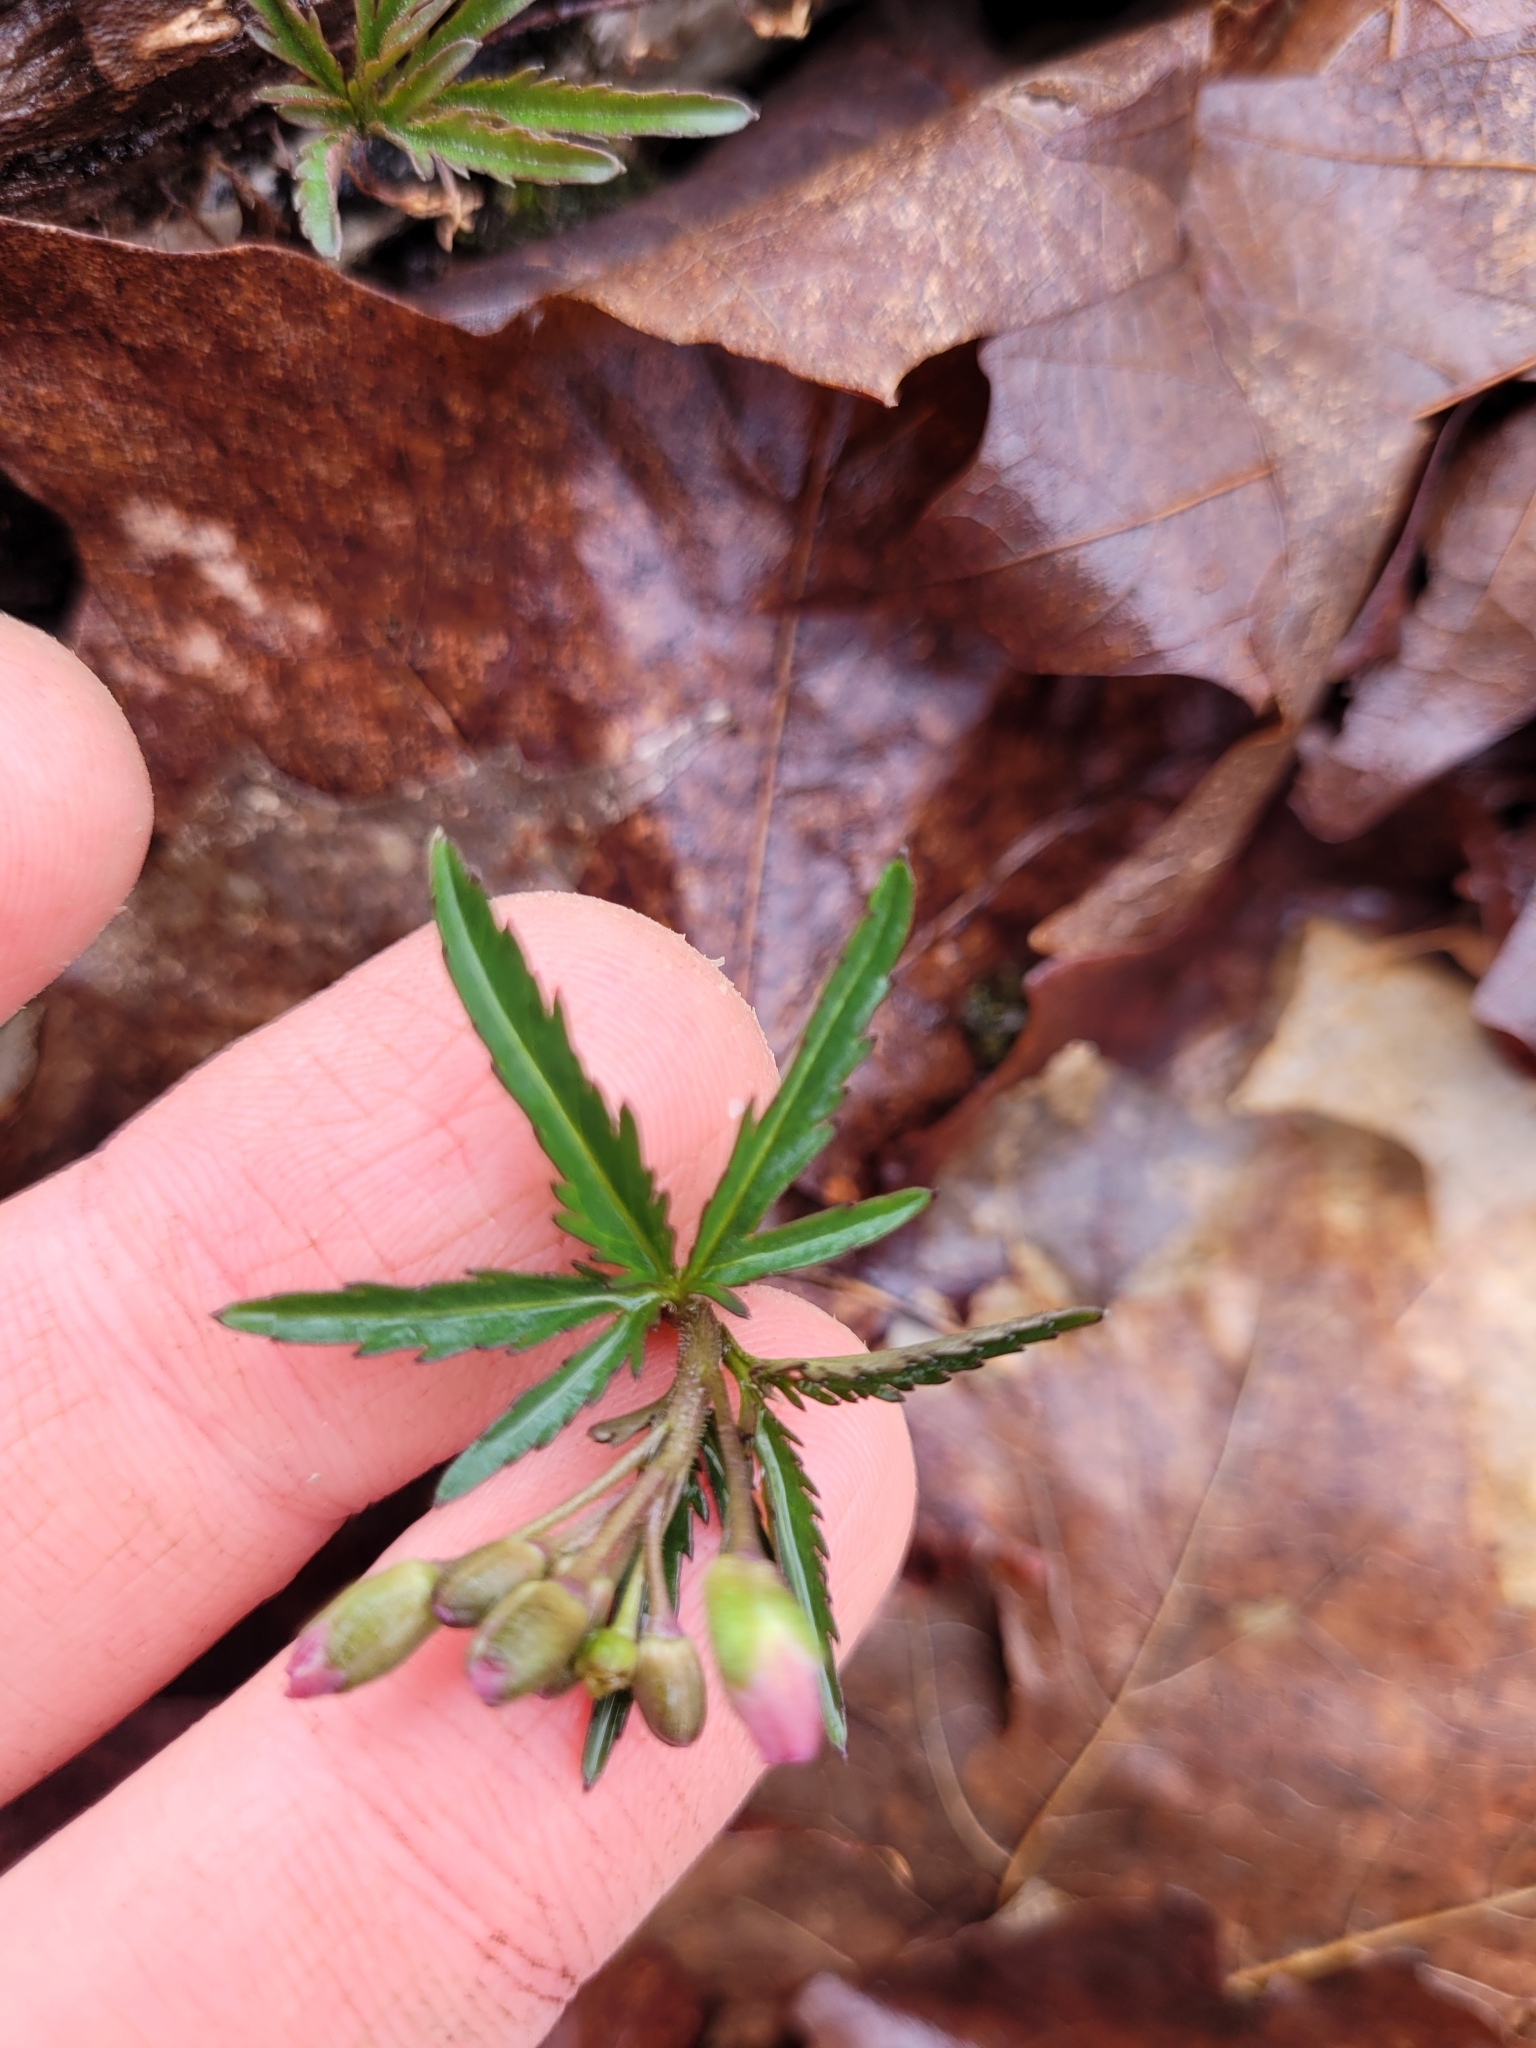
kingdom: Plantae
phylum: Tracheophyta
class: Magnoliopsida
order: Brassicales
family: Brassicaceae
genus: Cardamine
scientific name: Cardamine concatenata
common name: Cut-leaf toothcup
